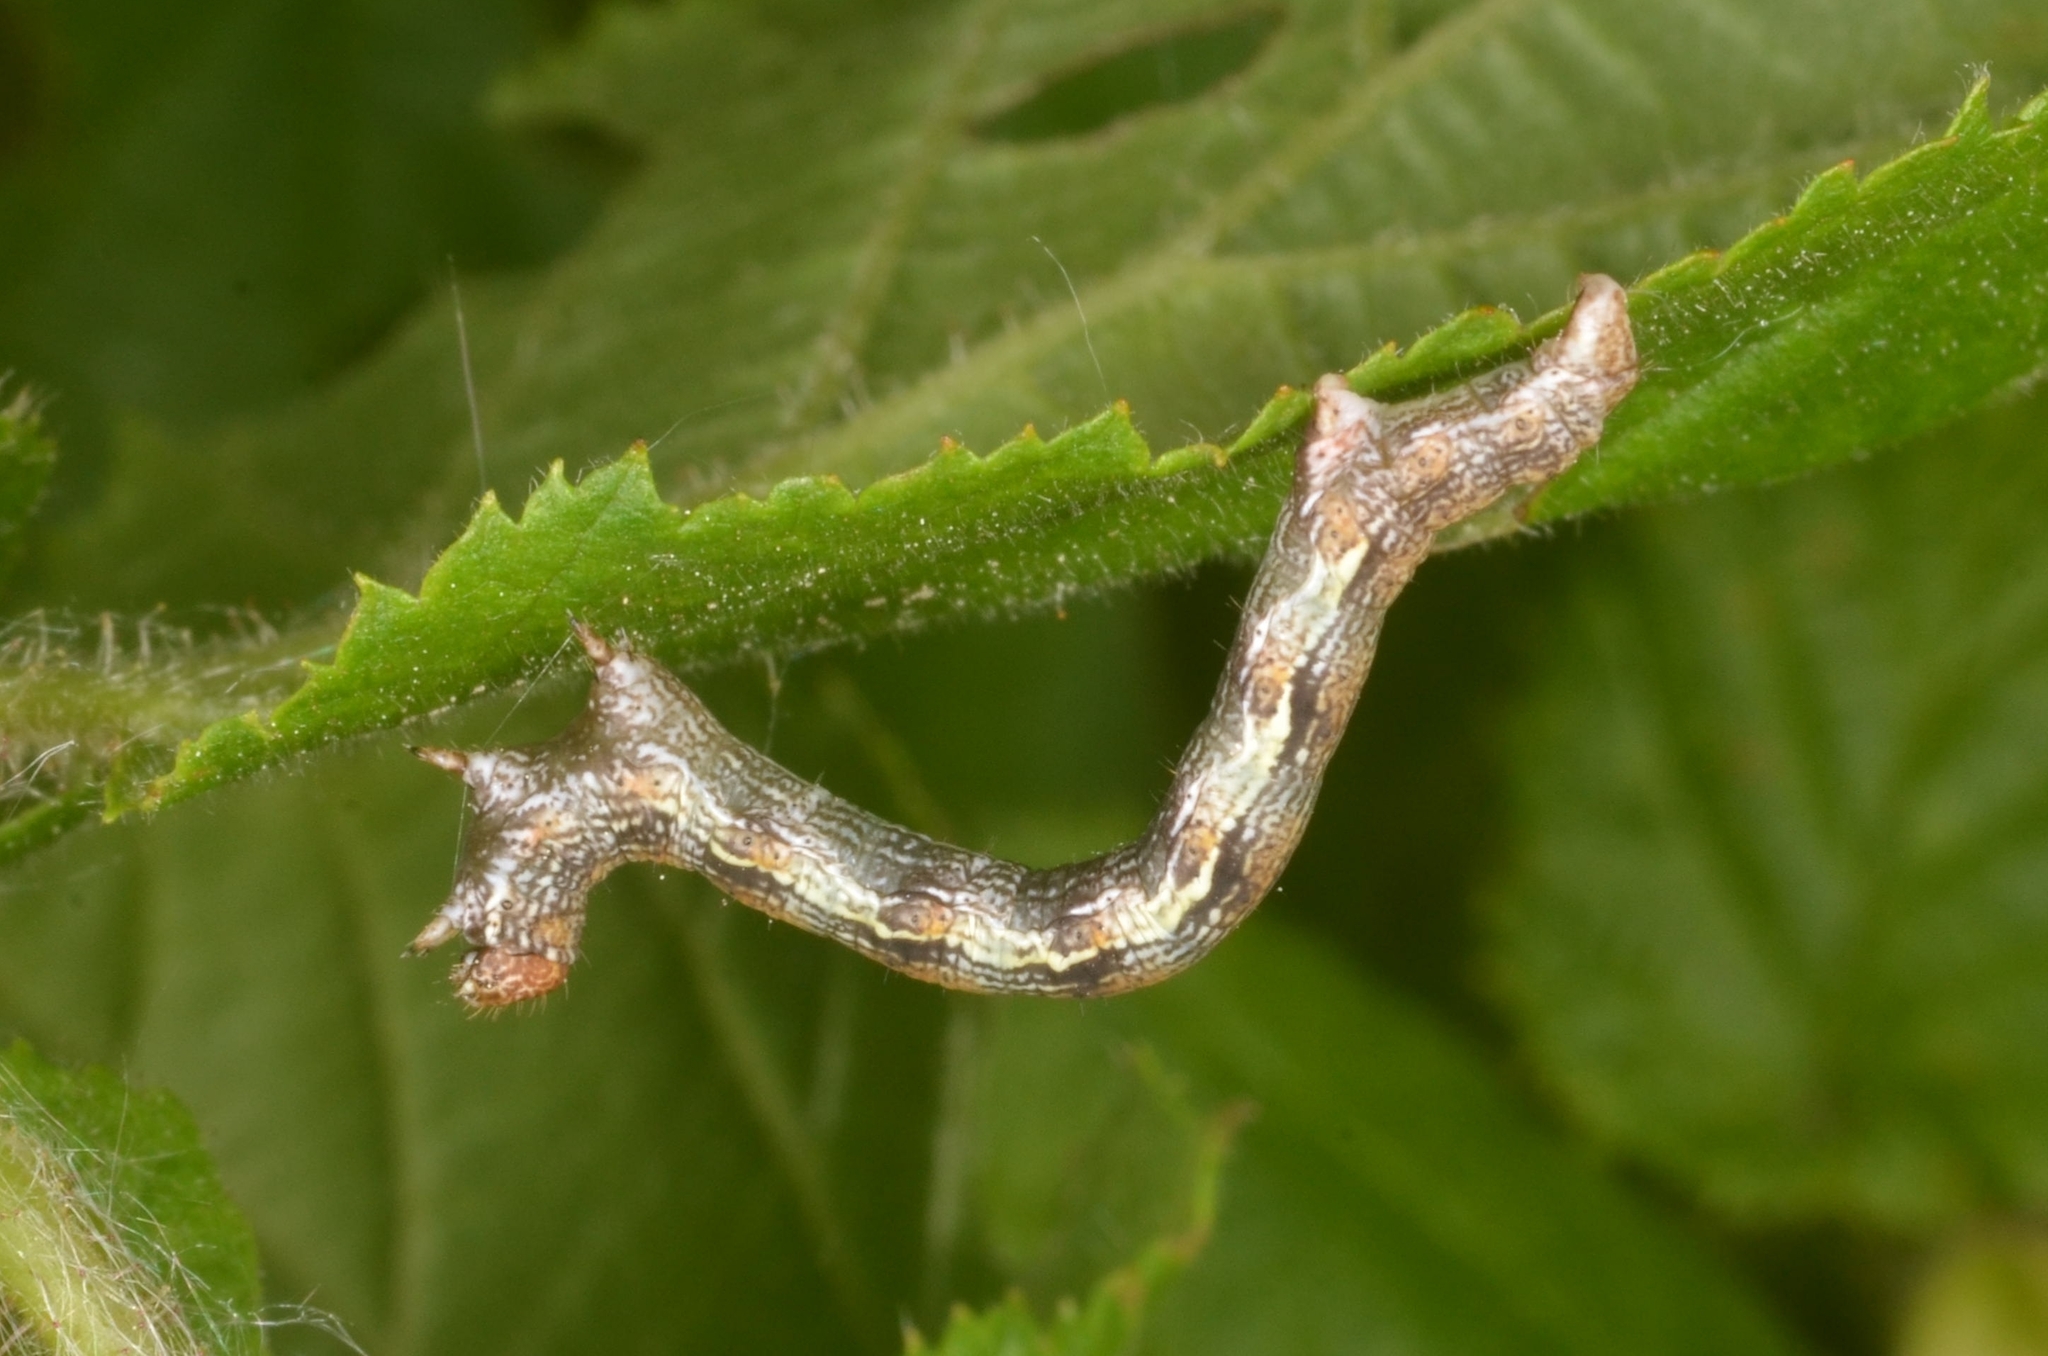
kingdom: Animalia
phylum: Arthropoda
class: Insecta
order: Lepidoptera
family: Geometridae
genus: Erannis
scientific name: Erannis defoliaria
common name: Mottled umber
